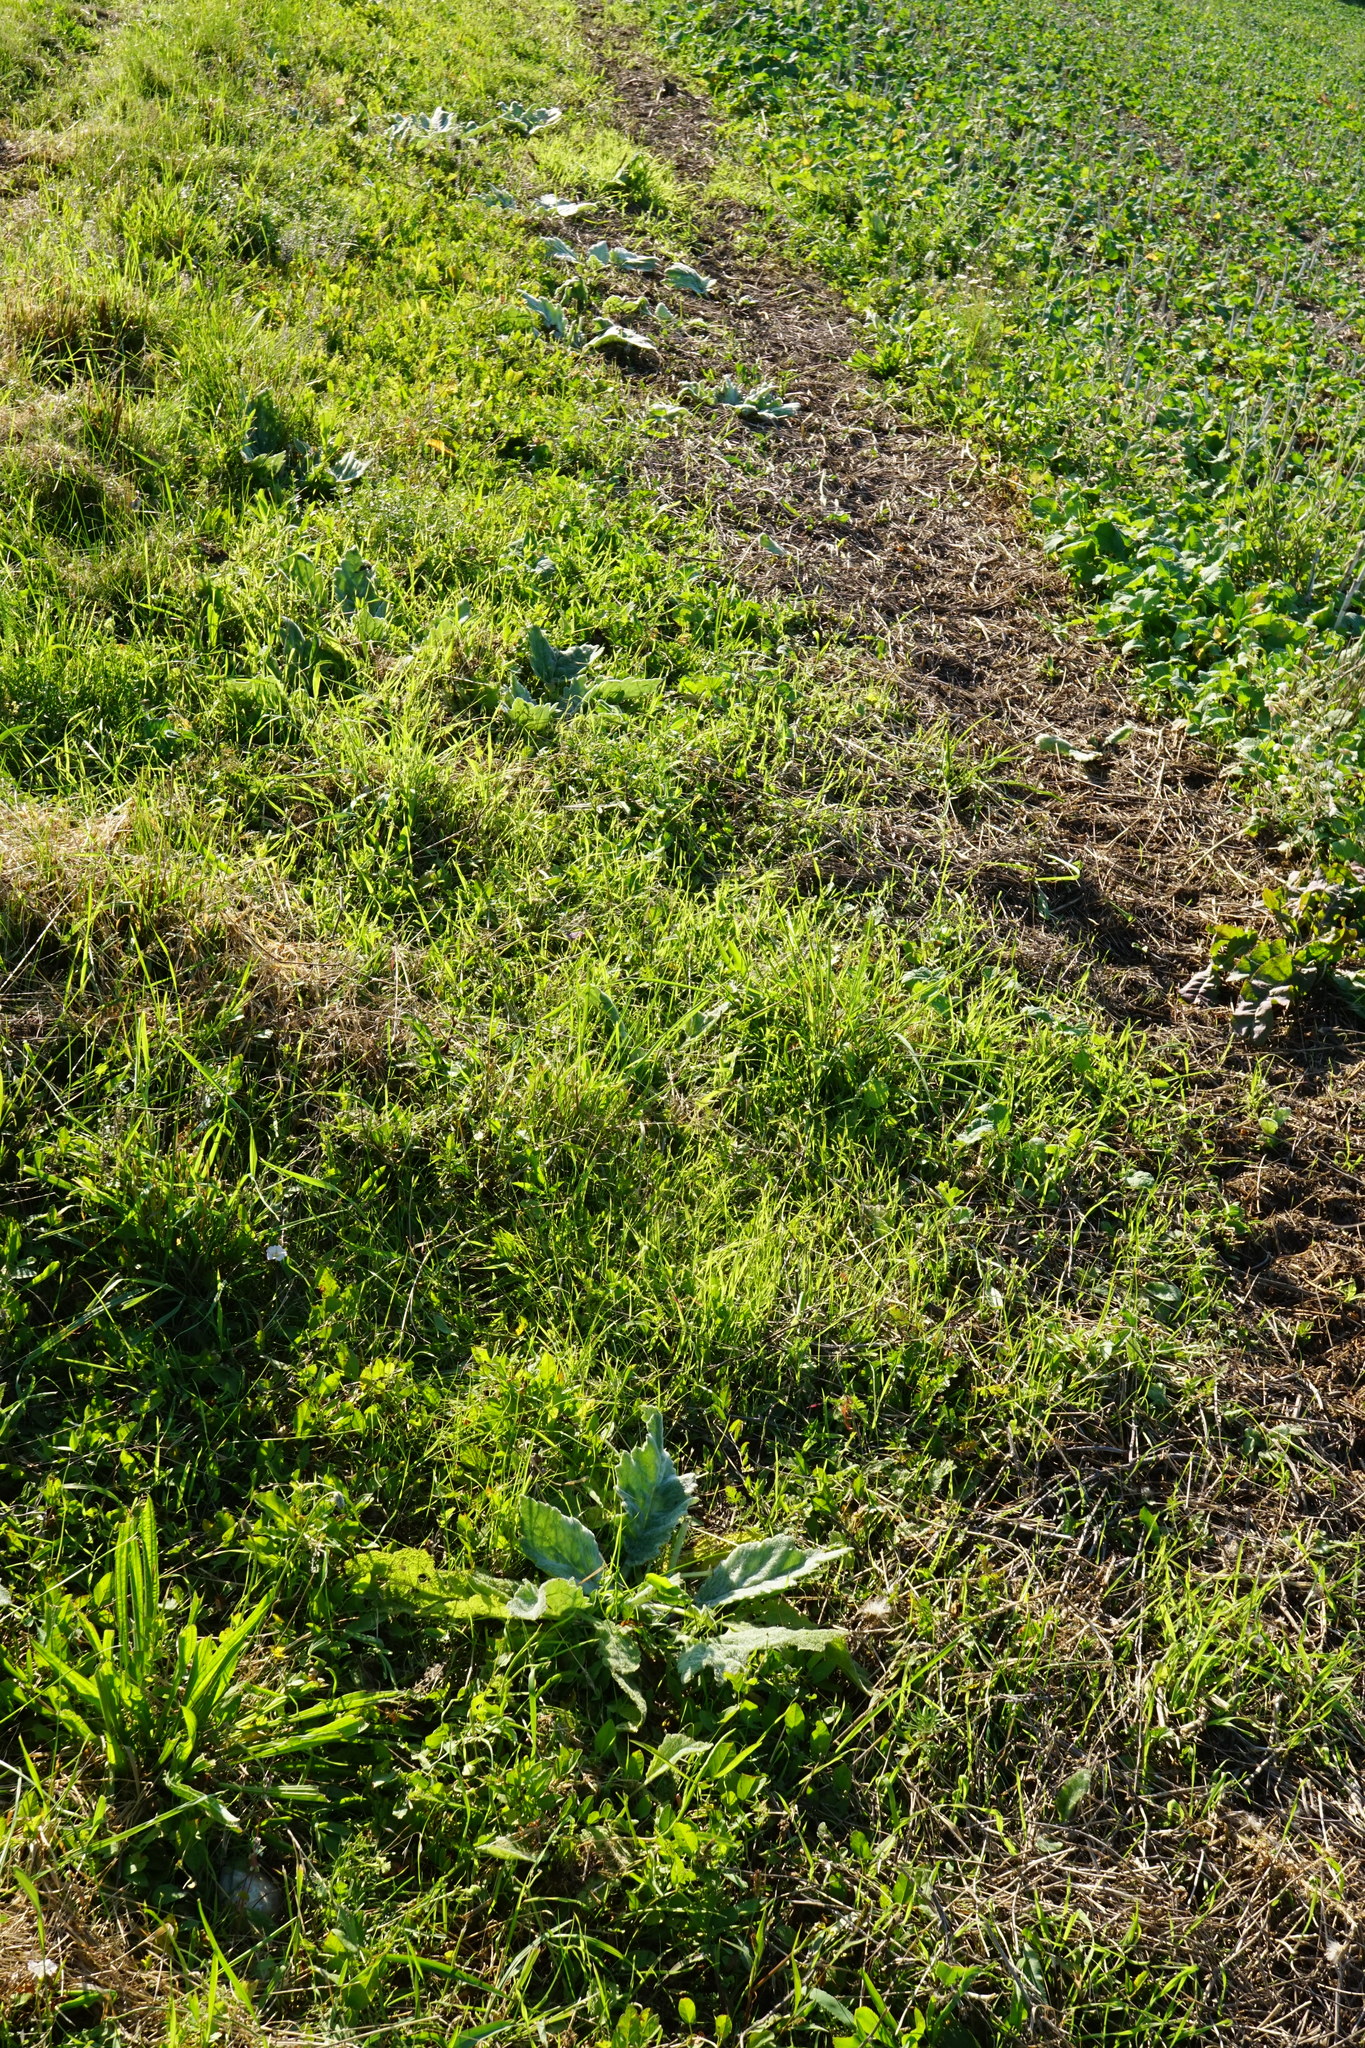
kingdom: Plantae
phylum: Tracheophyta
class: Magnoliopsida
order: Lamiales
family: Lamiaceae
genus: Salvia
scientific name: Salvia aethiopis
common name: Mediterranean sage
